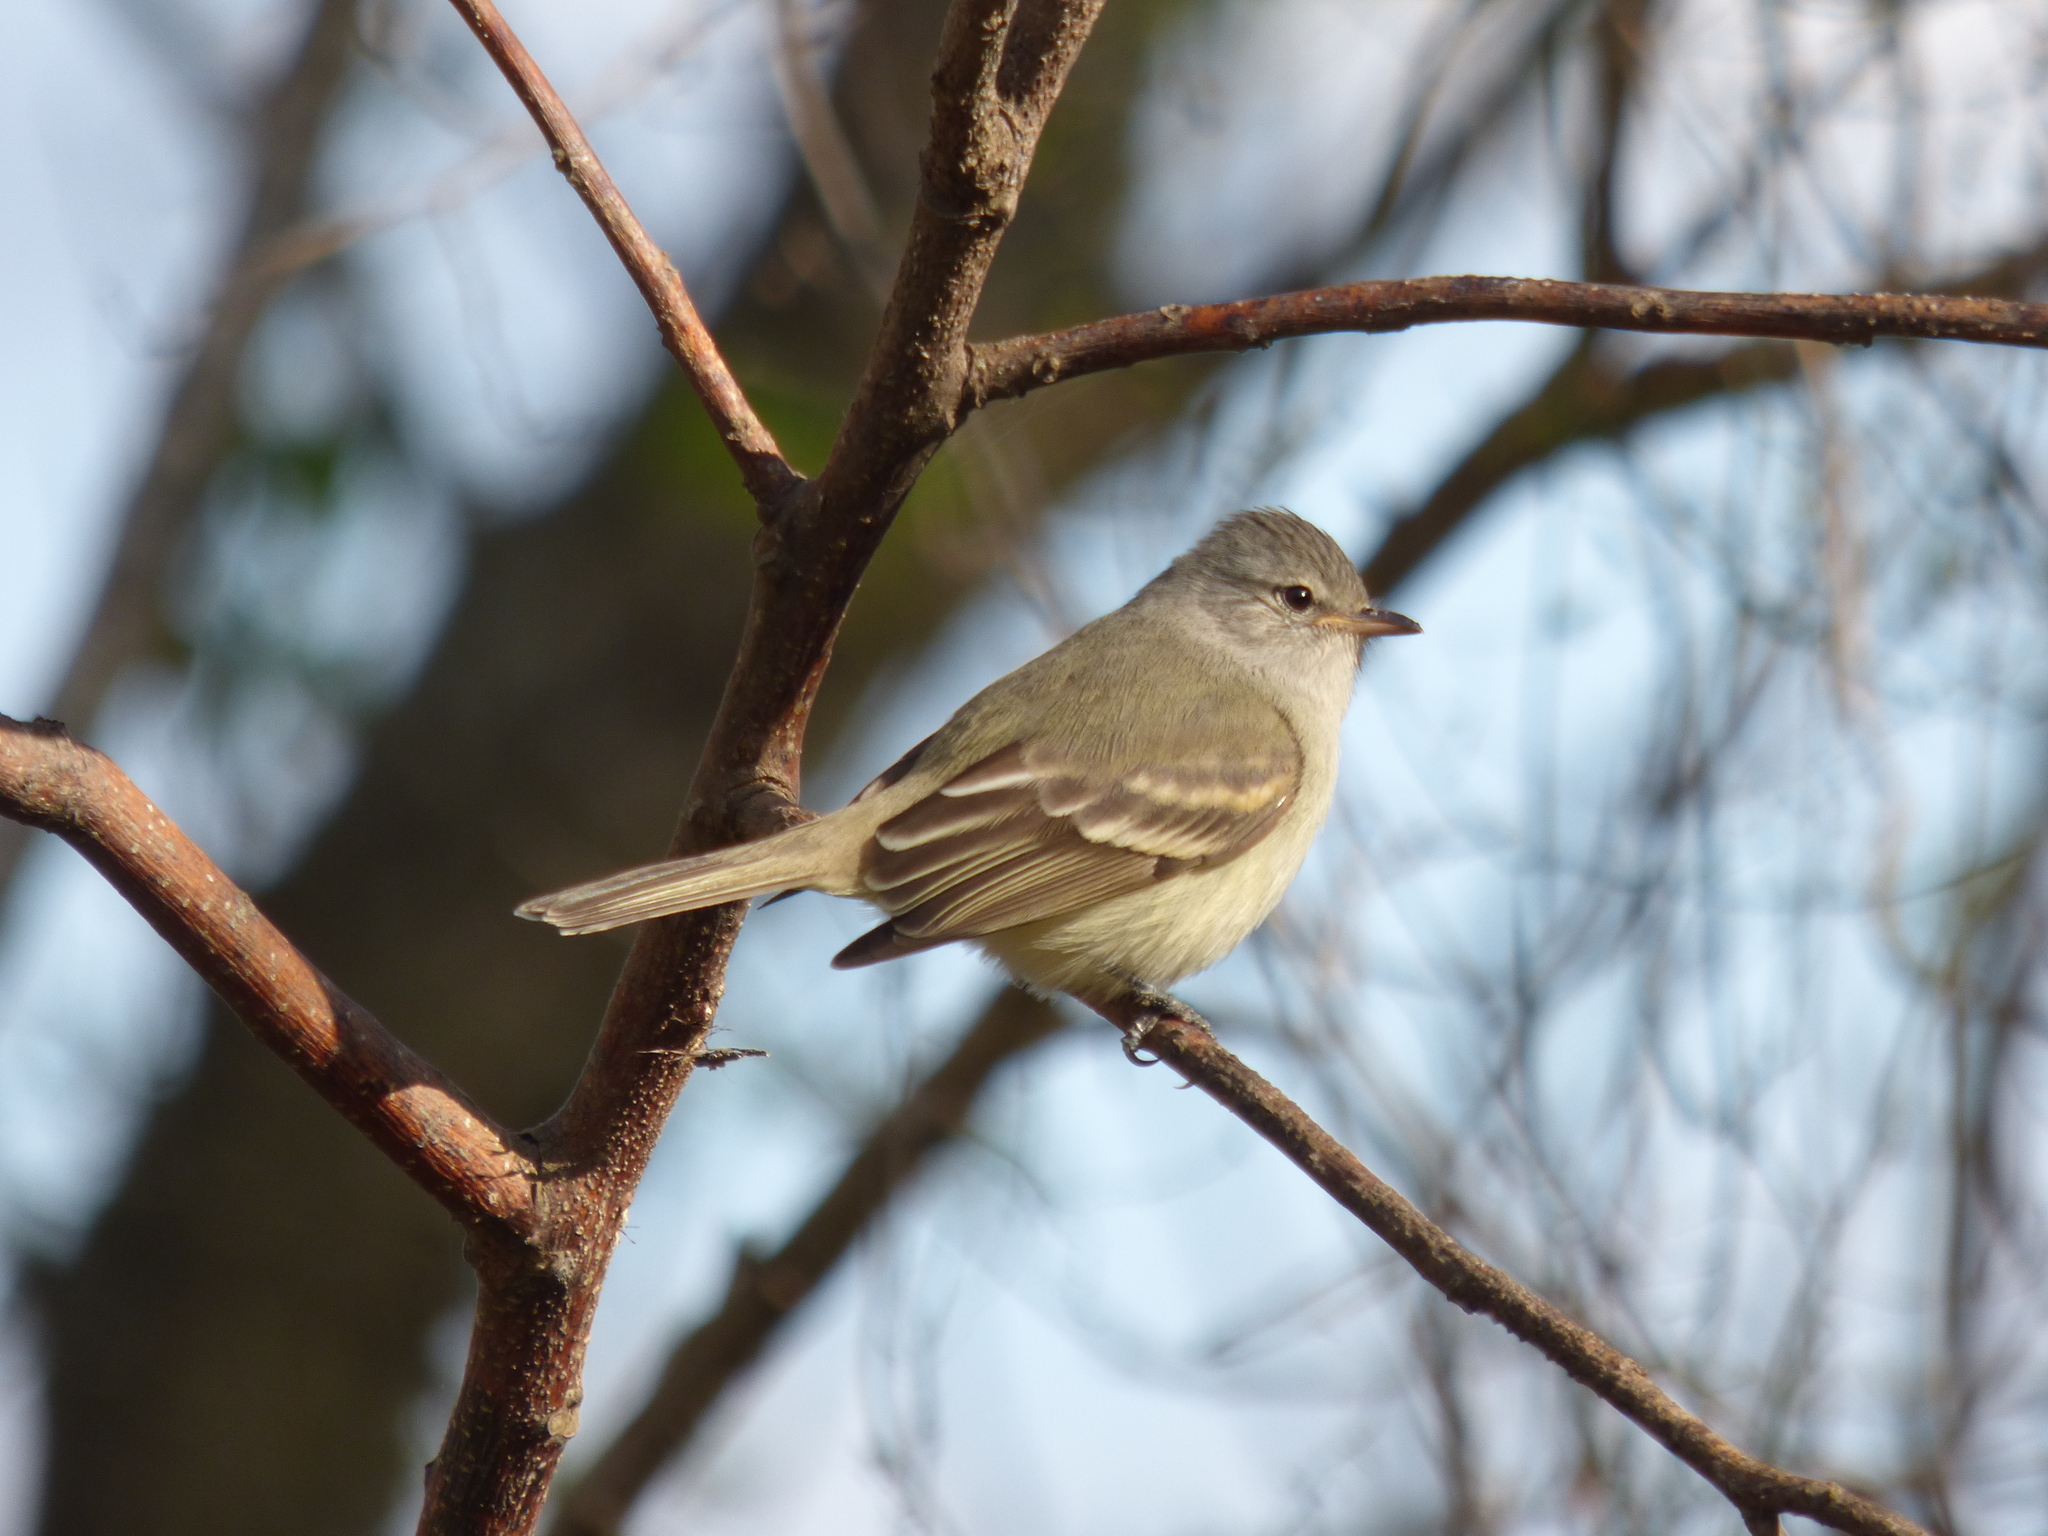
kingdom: Animalia
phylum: Chordata
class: Aves
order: Passeriformes
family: Tyrannidae
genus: Camptostoma
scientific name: Camptostoma obsoletum
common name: Southern beardless-tyrannulet
